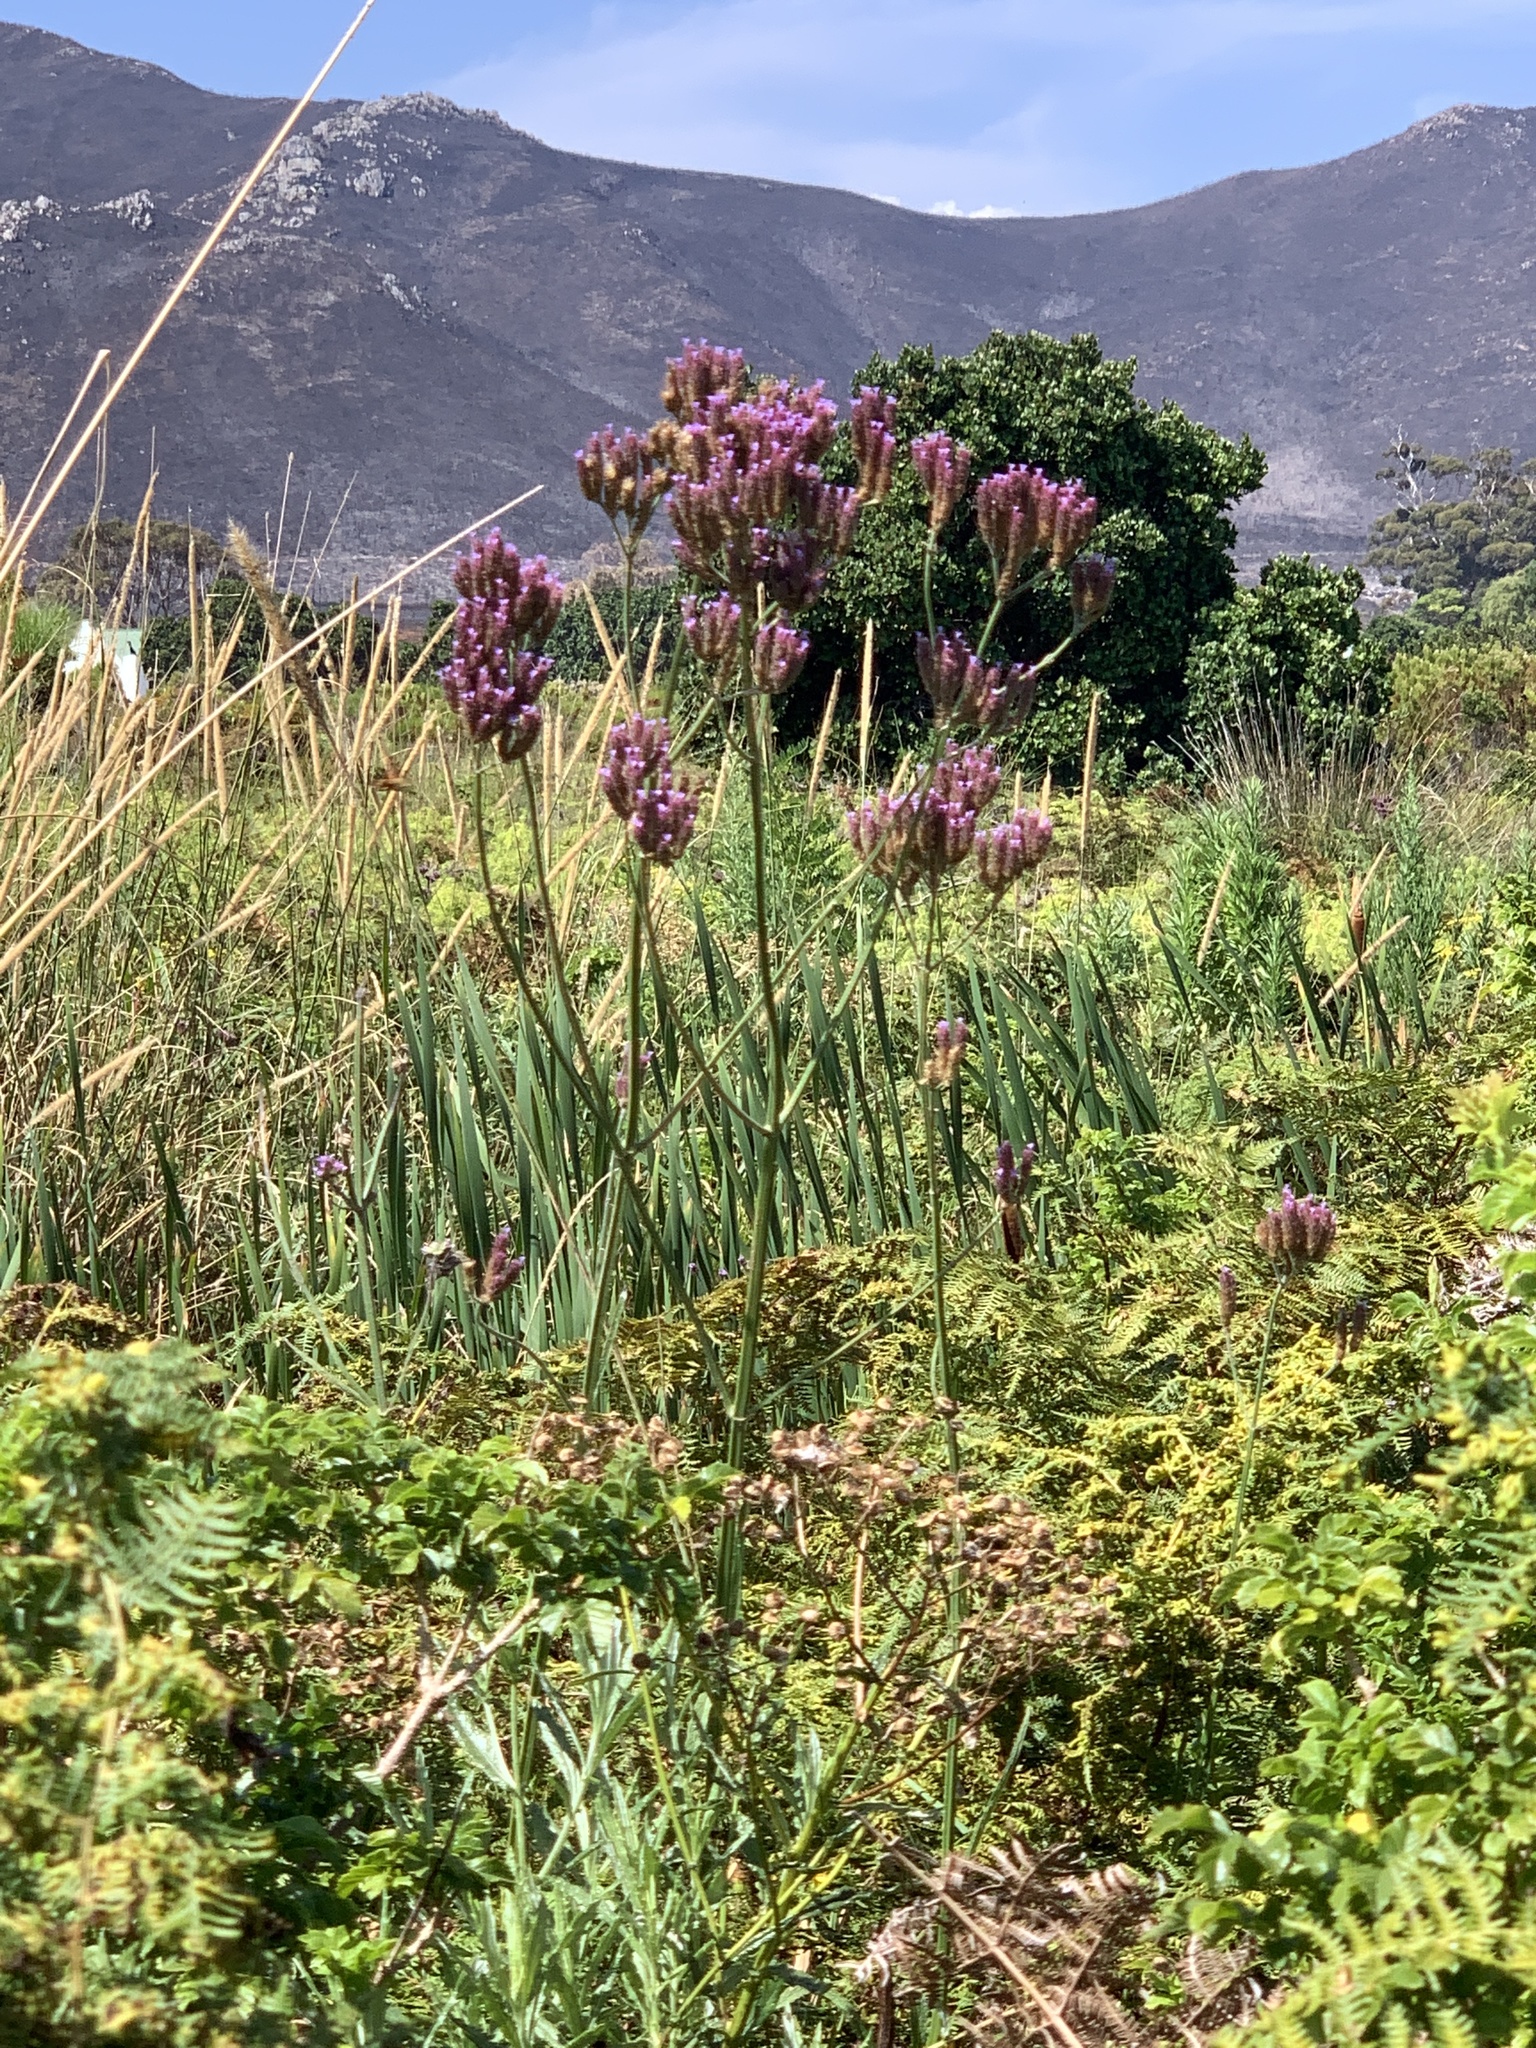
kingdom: Plantae
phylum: Tracheophyta
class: Magnoliopsida
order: Lamiales
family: Verbenaceae
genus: Verbena
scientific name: Verbena bonariensis
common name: Purpletop vervain
